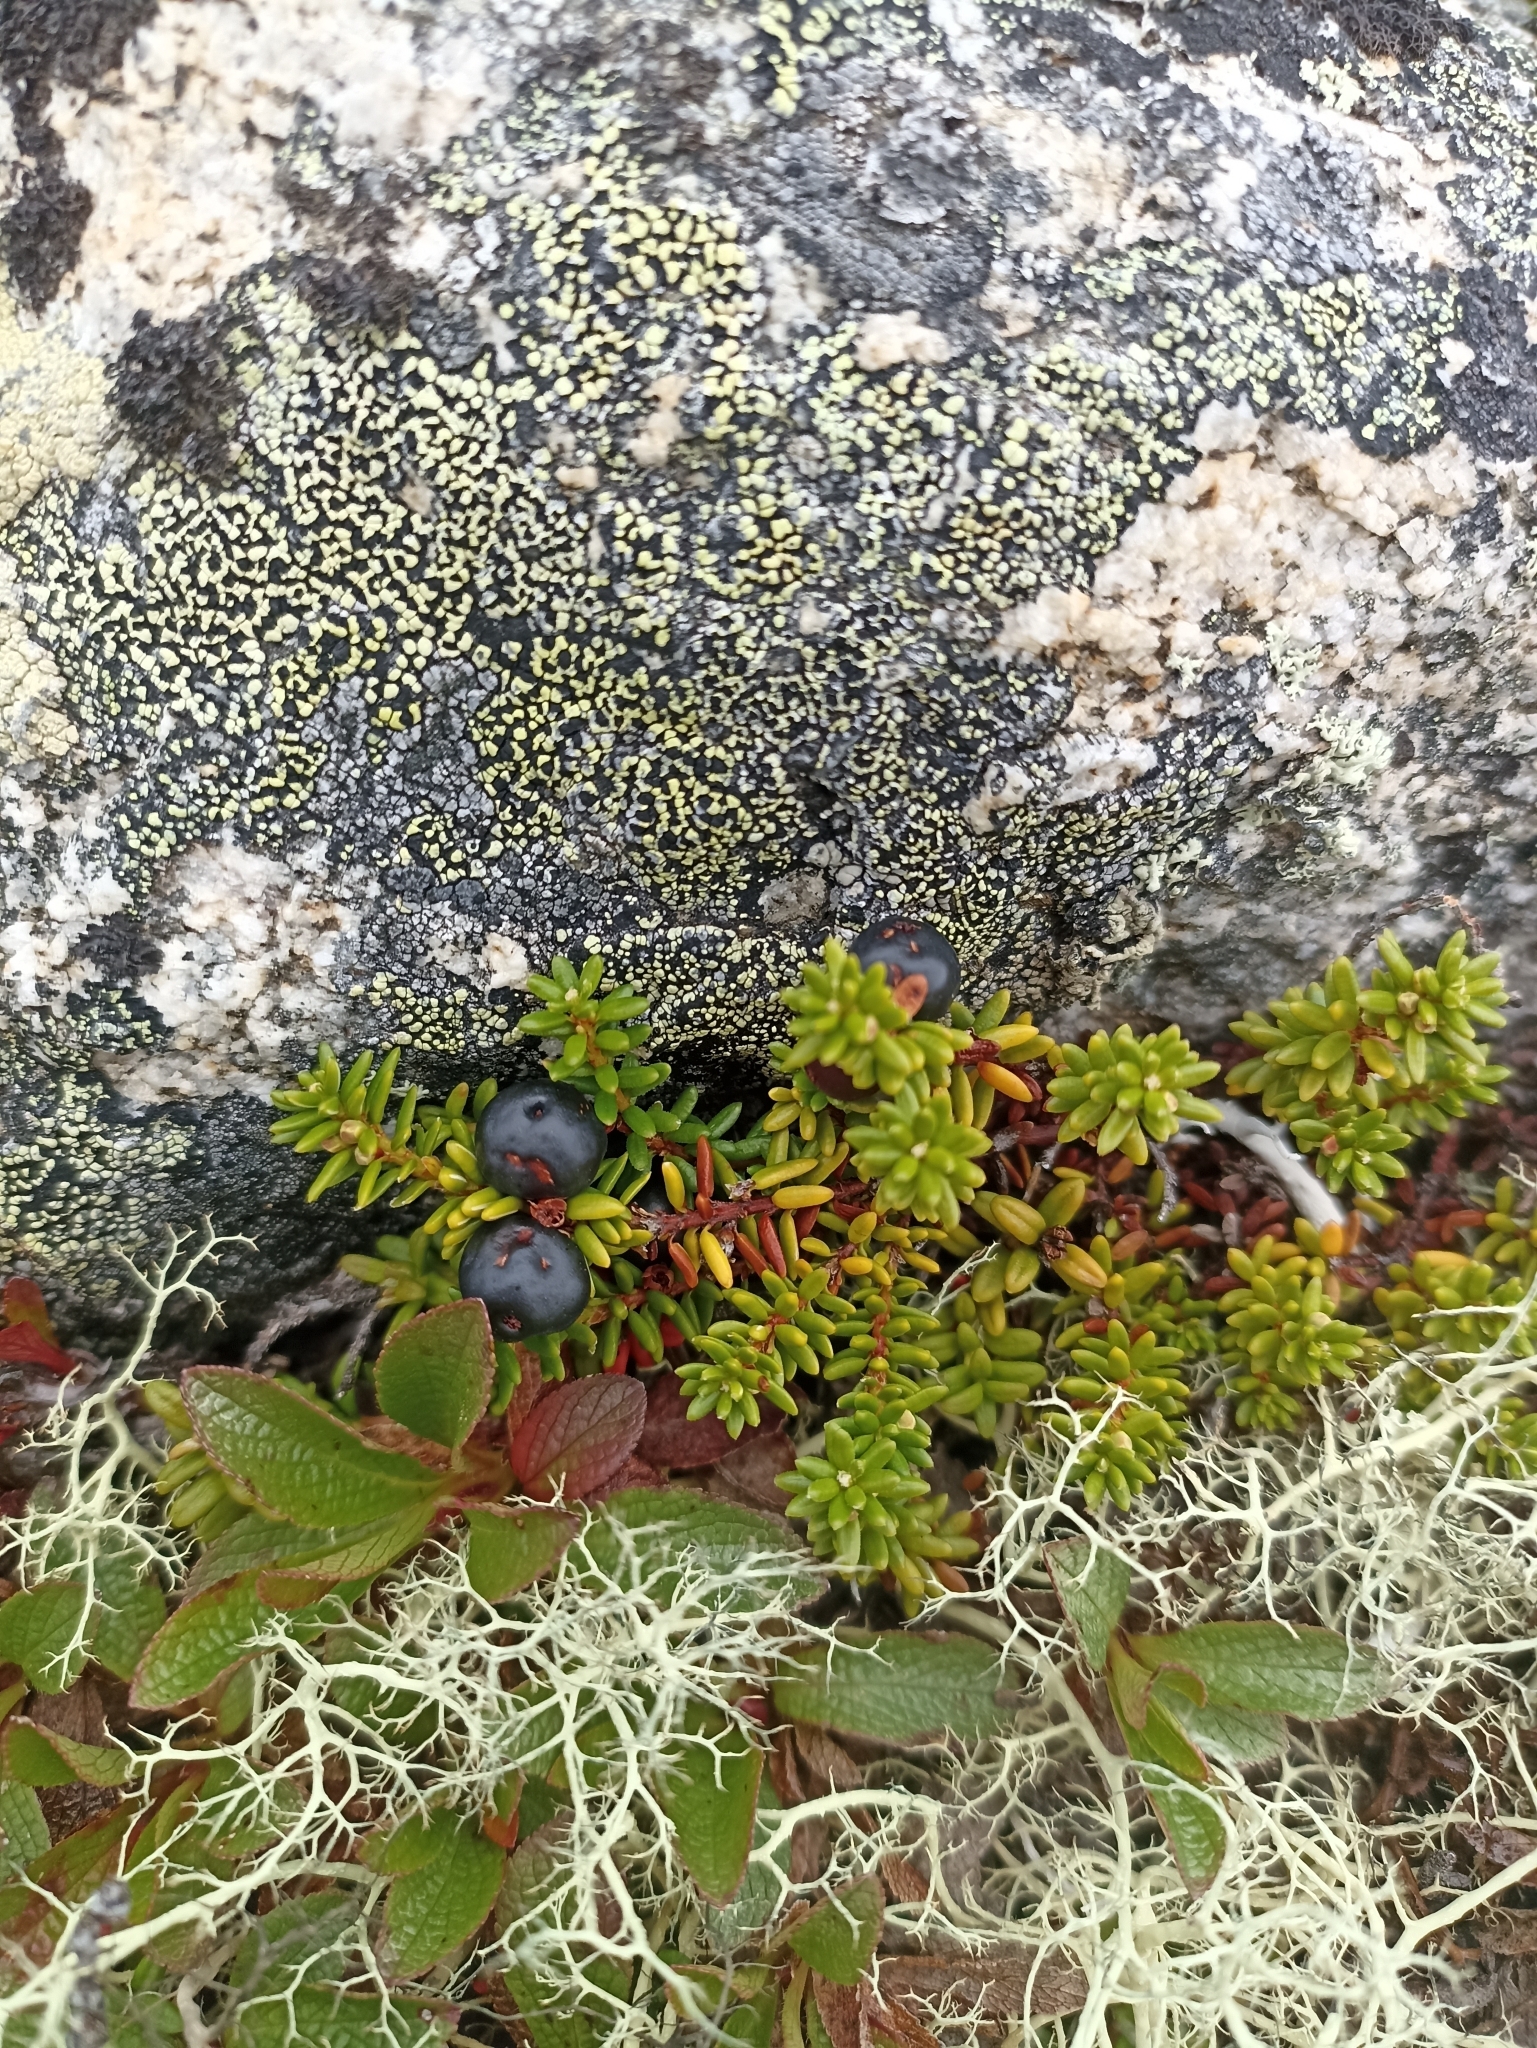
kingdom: Plantae
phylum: Tracheophyta
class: Magnoliopsida
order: Ericales
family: Ericaceae
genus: Empetrum
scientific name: Empetrum nigrum
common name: Black crowberry
